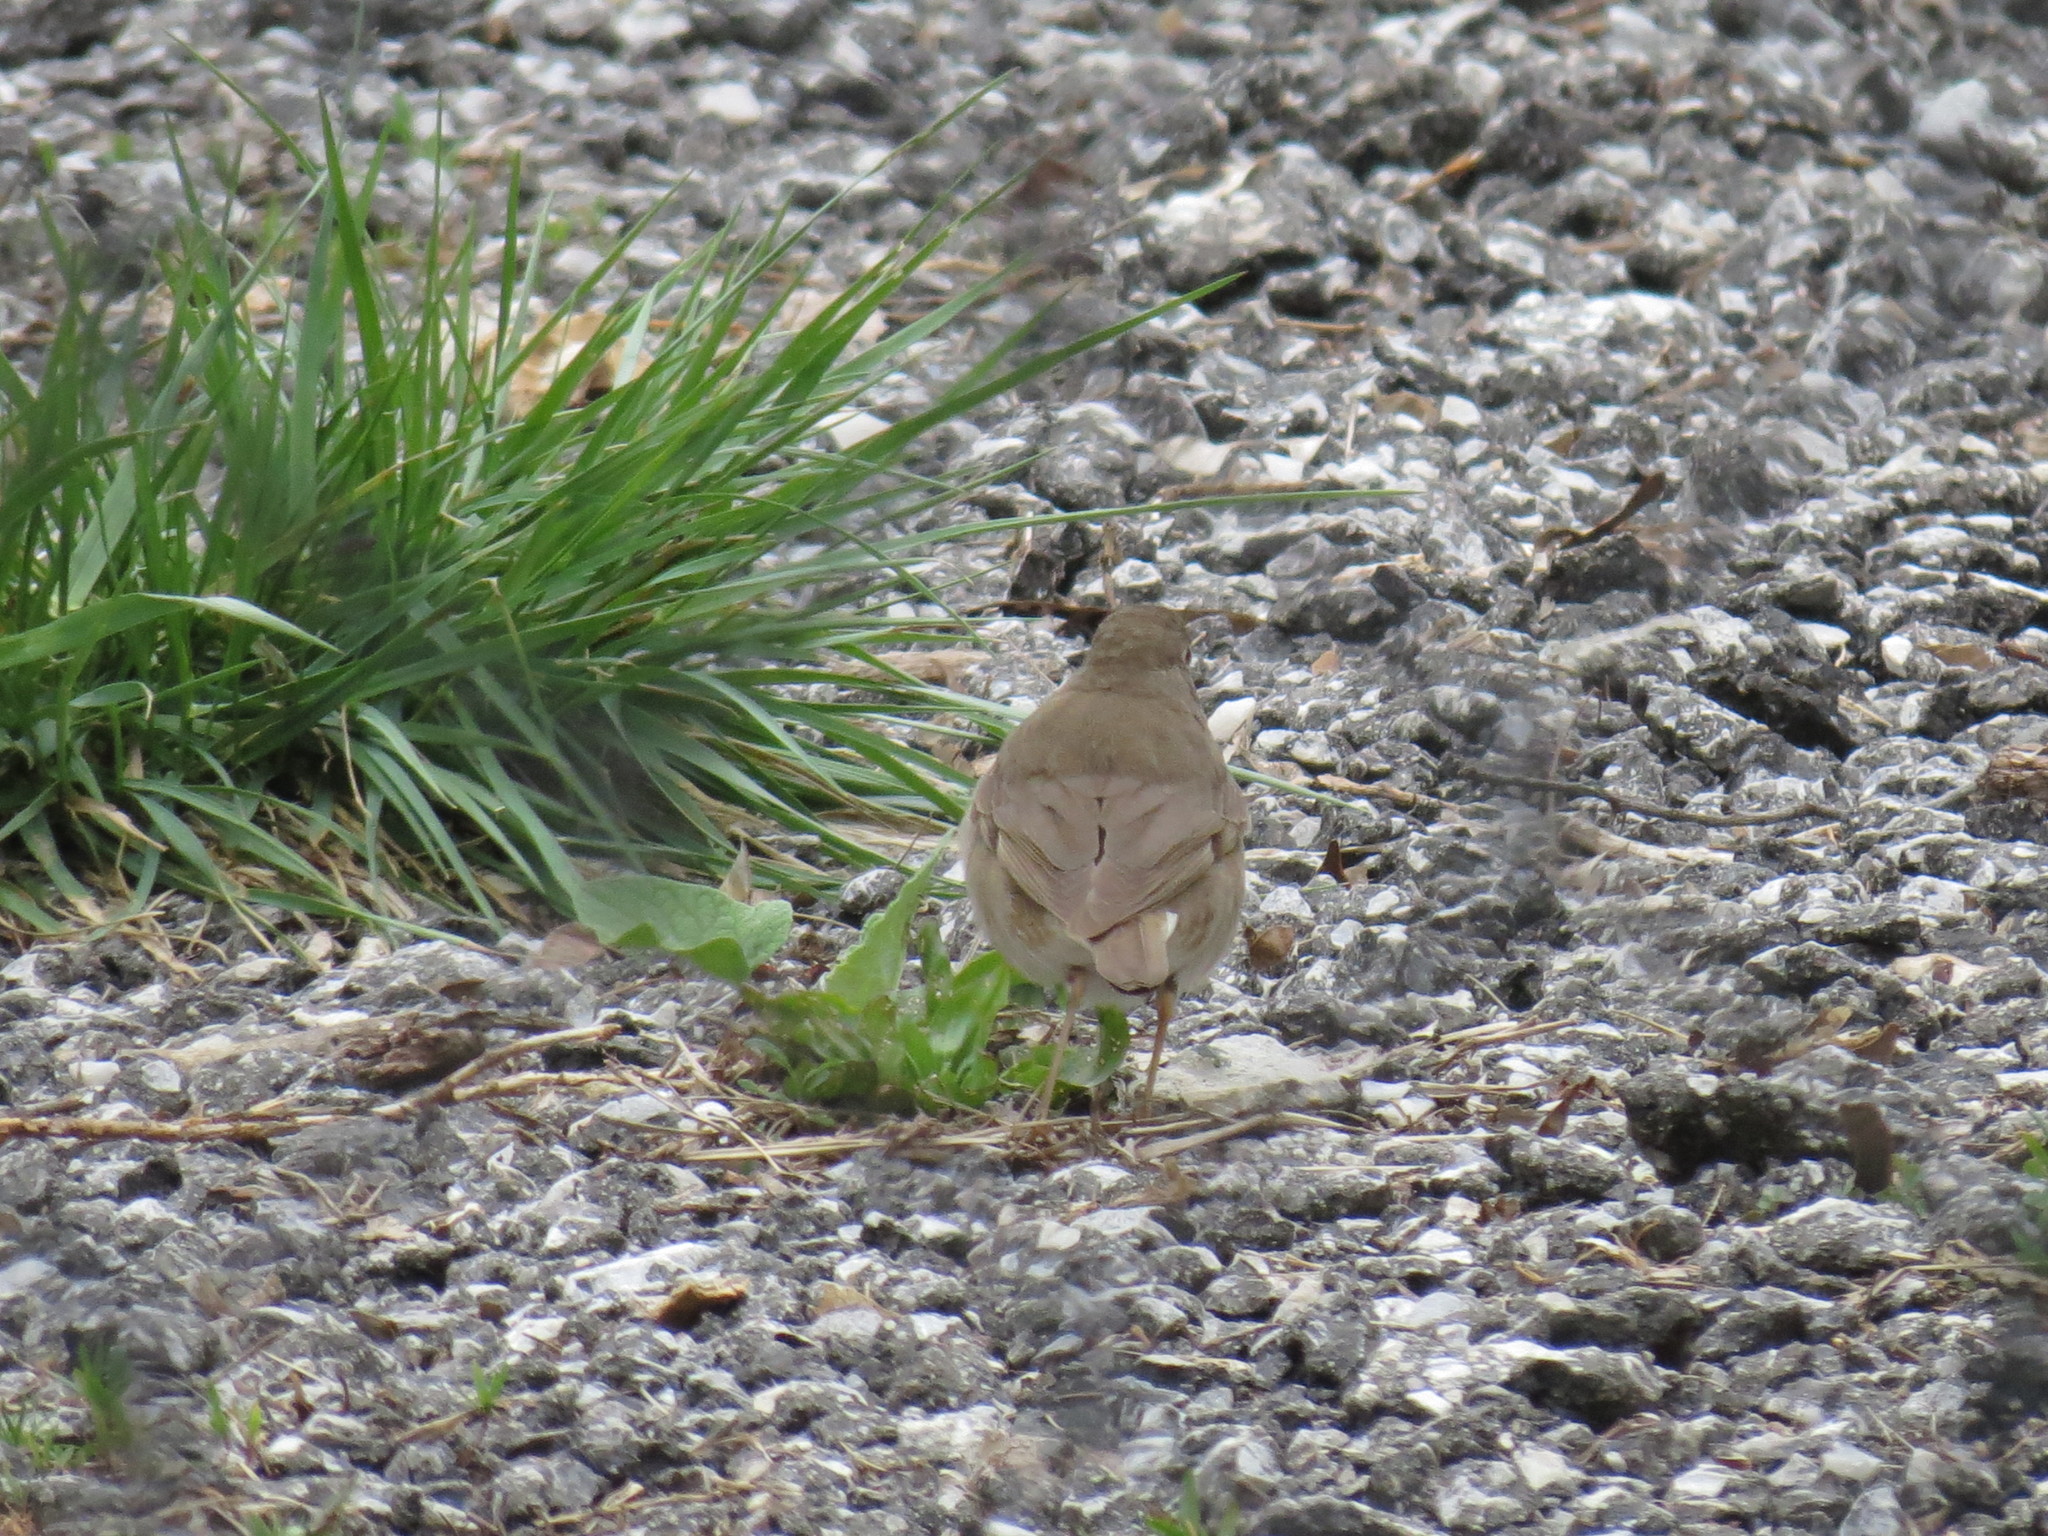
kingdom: Animalia
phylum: Chordata
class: Aves
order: Passeriformes
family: Turdidae
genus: Catharus
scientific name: Catharus minimus
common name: Grey-cheeked thrush
